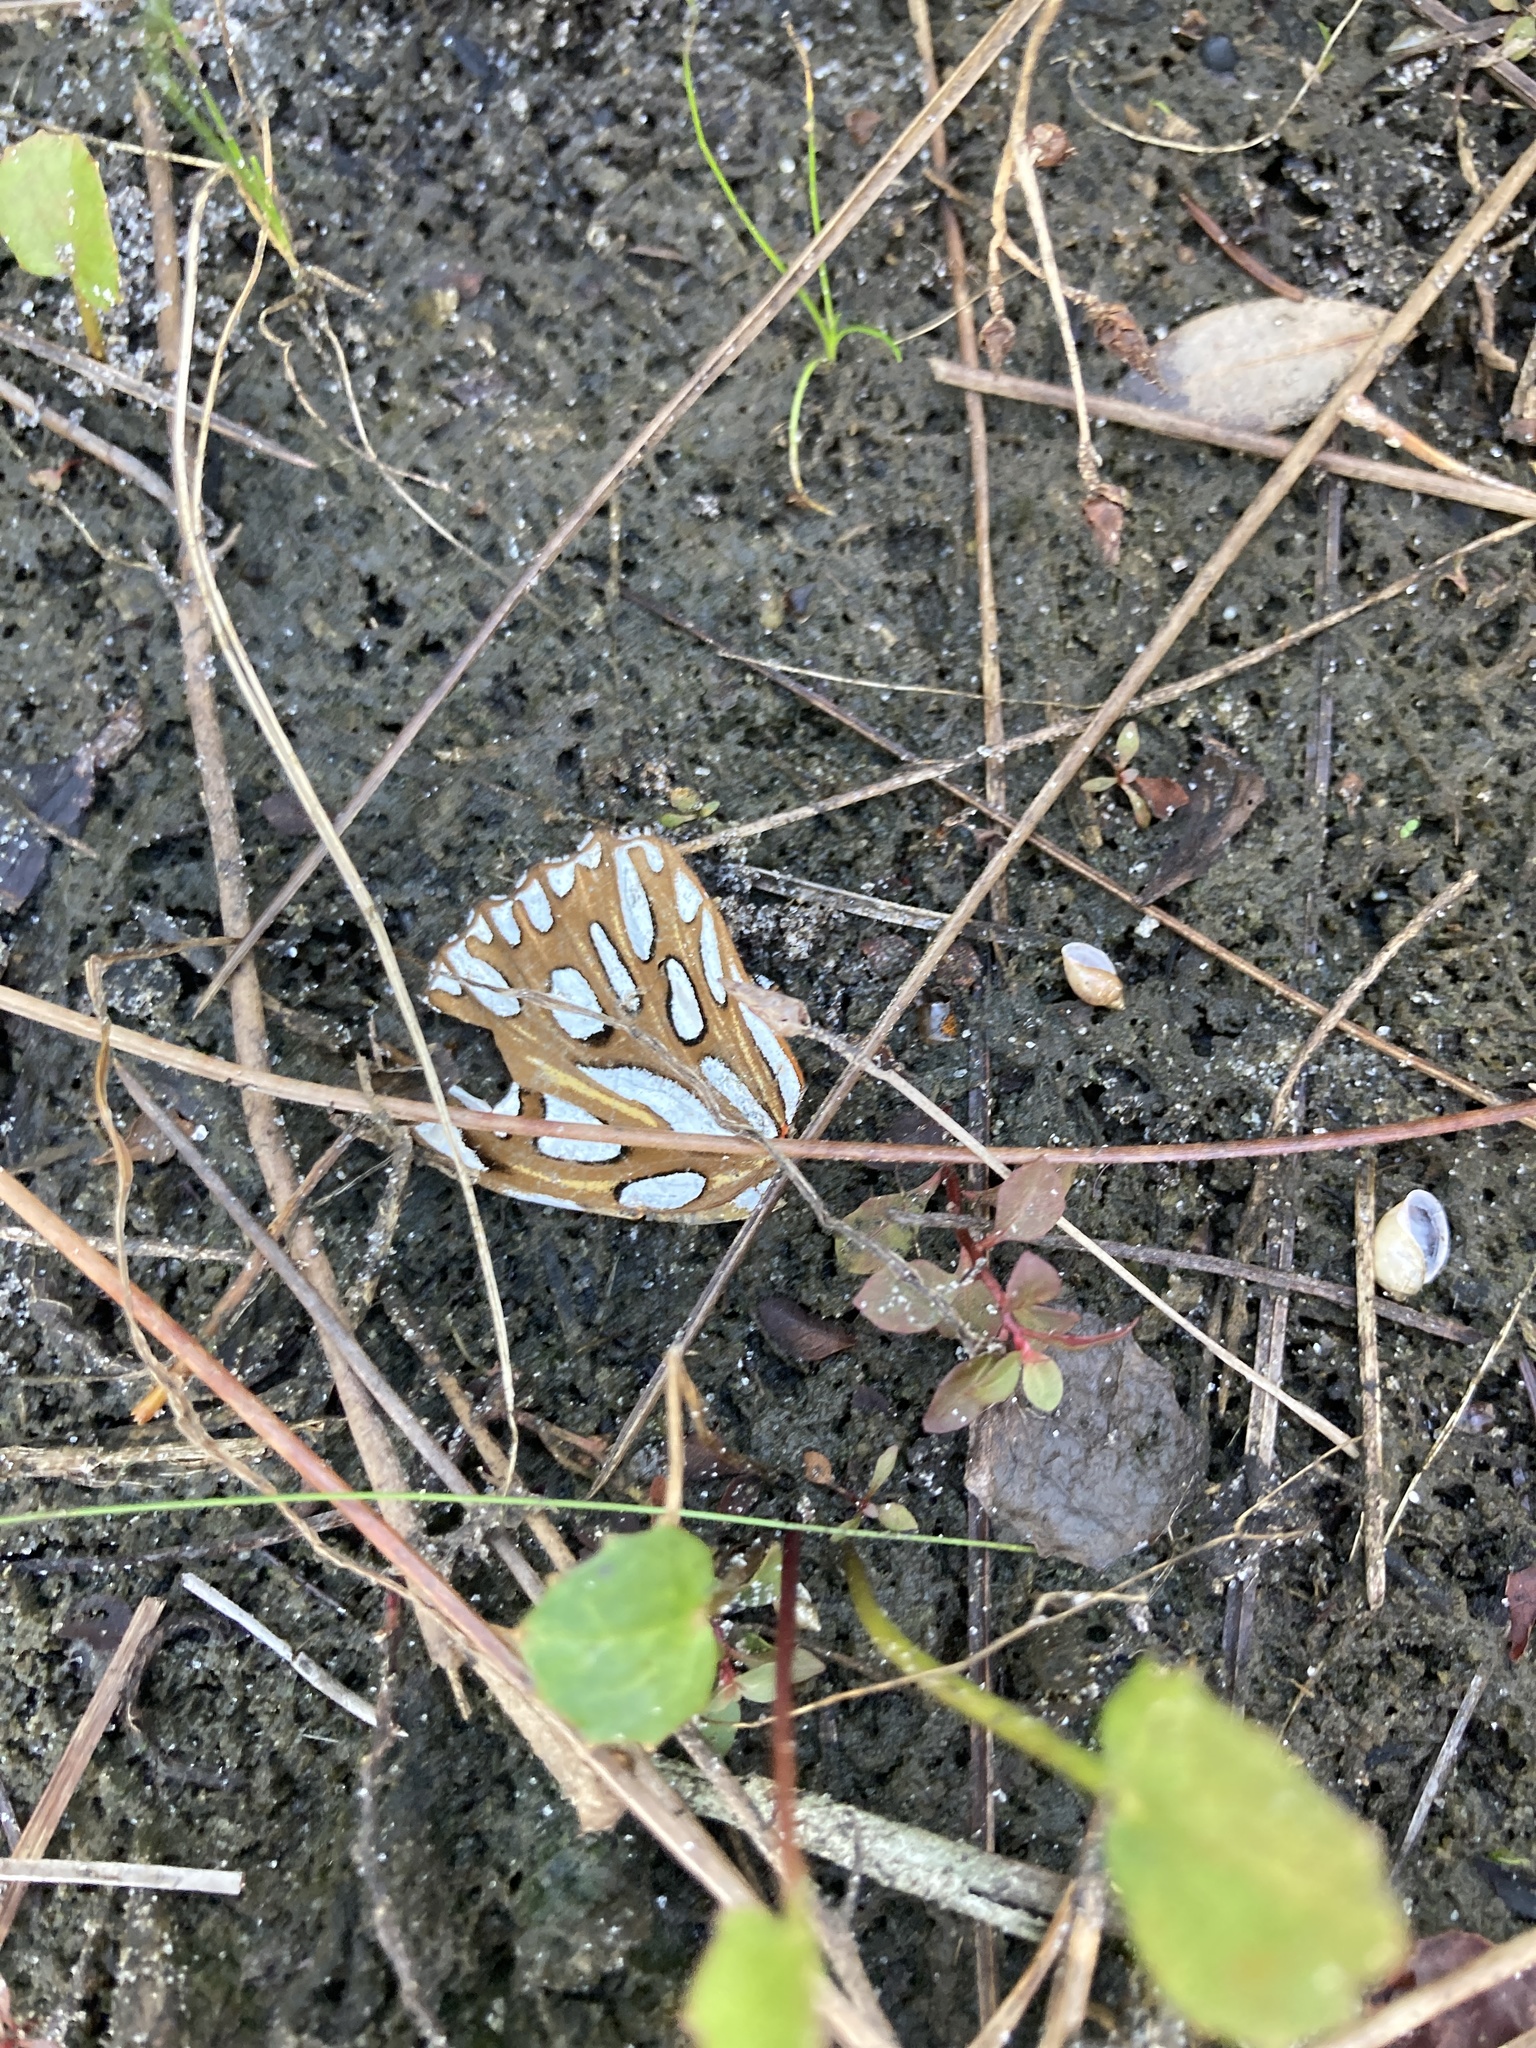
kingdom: Animalia
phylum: Arthropoda
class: Insecta
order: Lepidoptera
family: Nymphalidae
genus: Dione
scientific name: Dione vanillae
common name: Gulf fritillary
